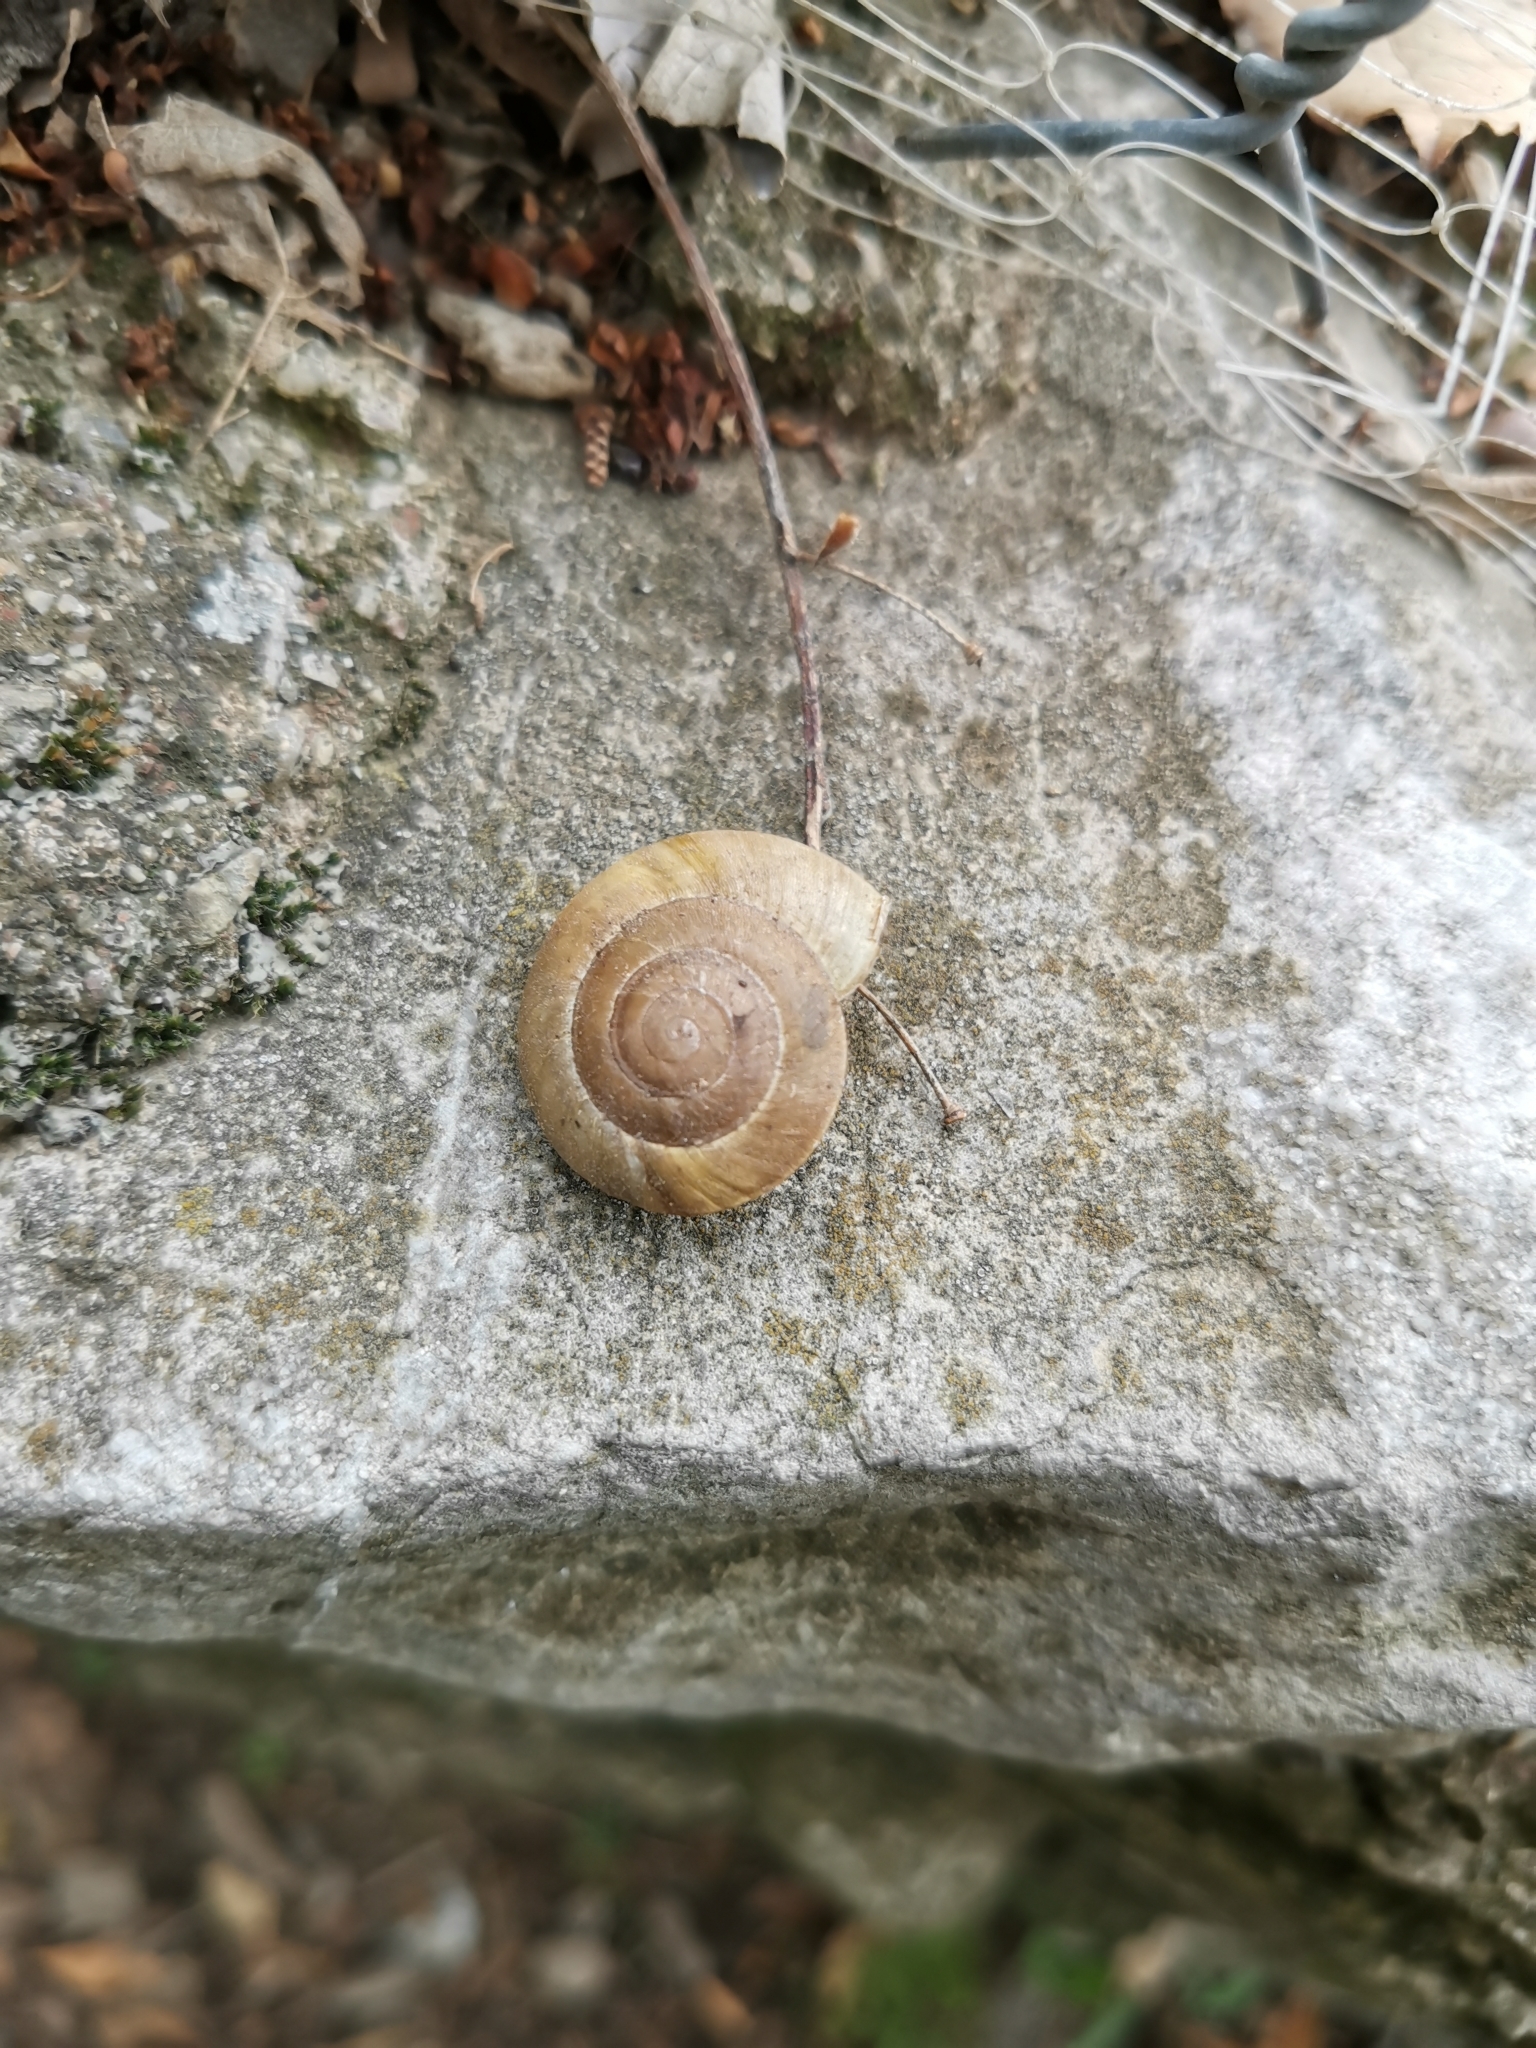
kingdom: Animalia
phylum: Mollusca
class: Gastropoda
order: Stylommatophora
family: Zonitidae
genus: Zonites
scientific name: Zonites algirus
